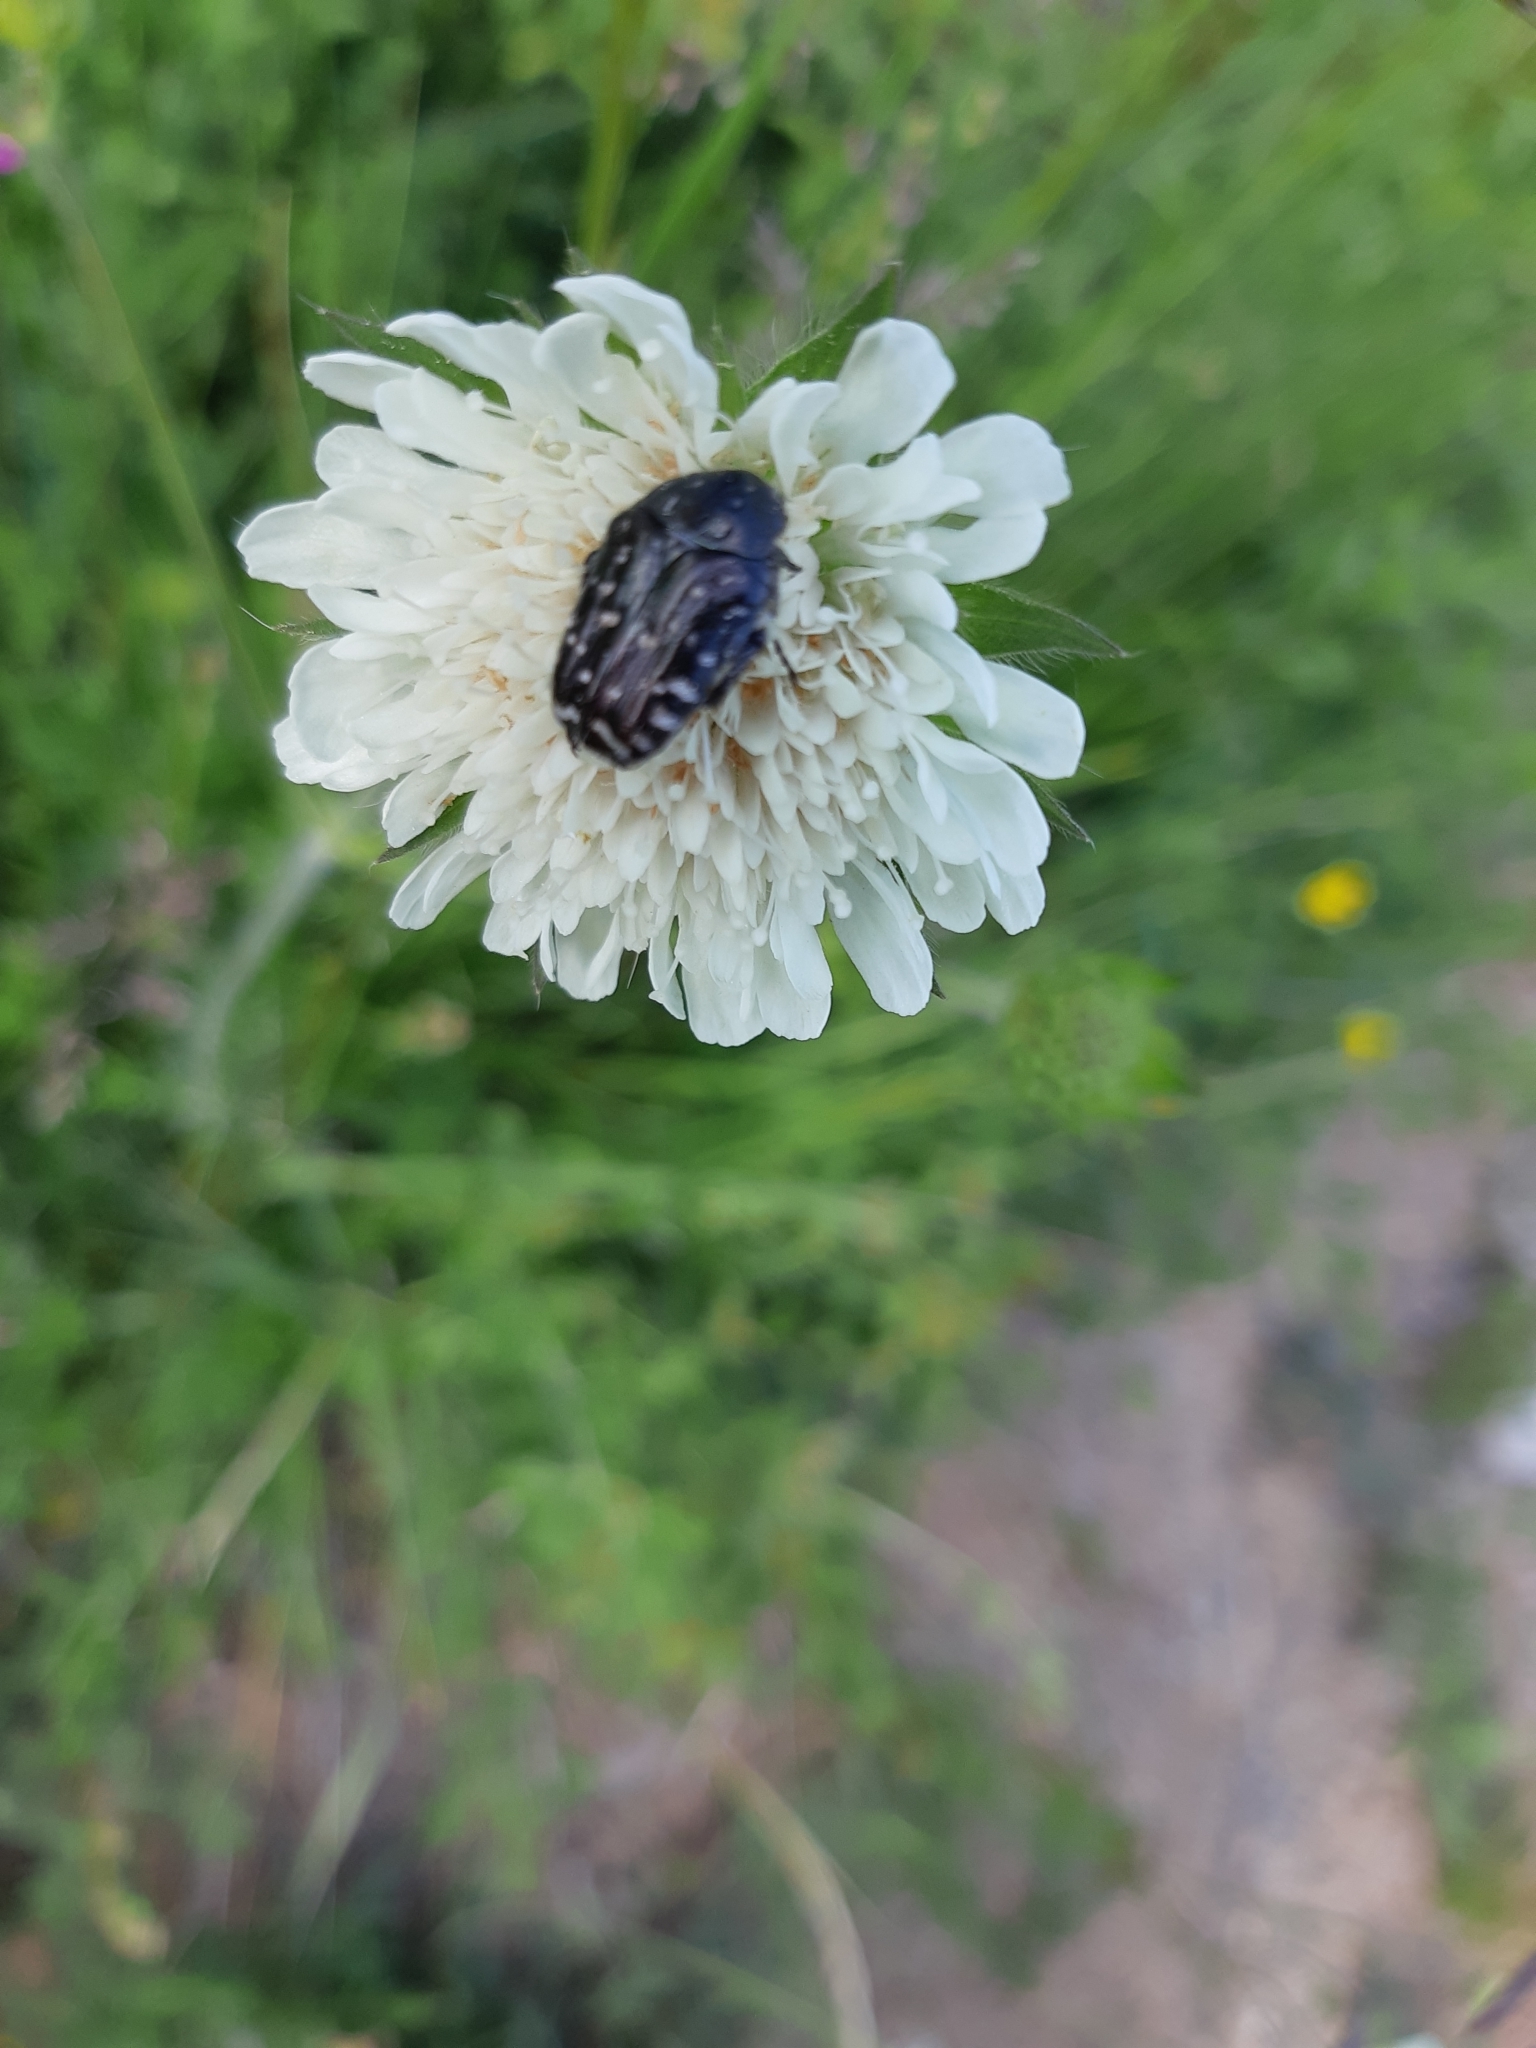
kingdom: Animalia
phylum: Arthropoda
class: Insecta
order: Coleoptera
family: Scarabaeidae
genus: Oxythyrea
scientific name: Oxythyrea funesta
